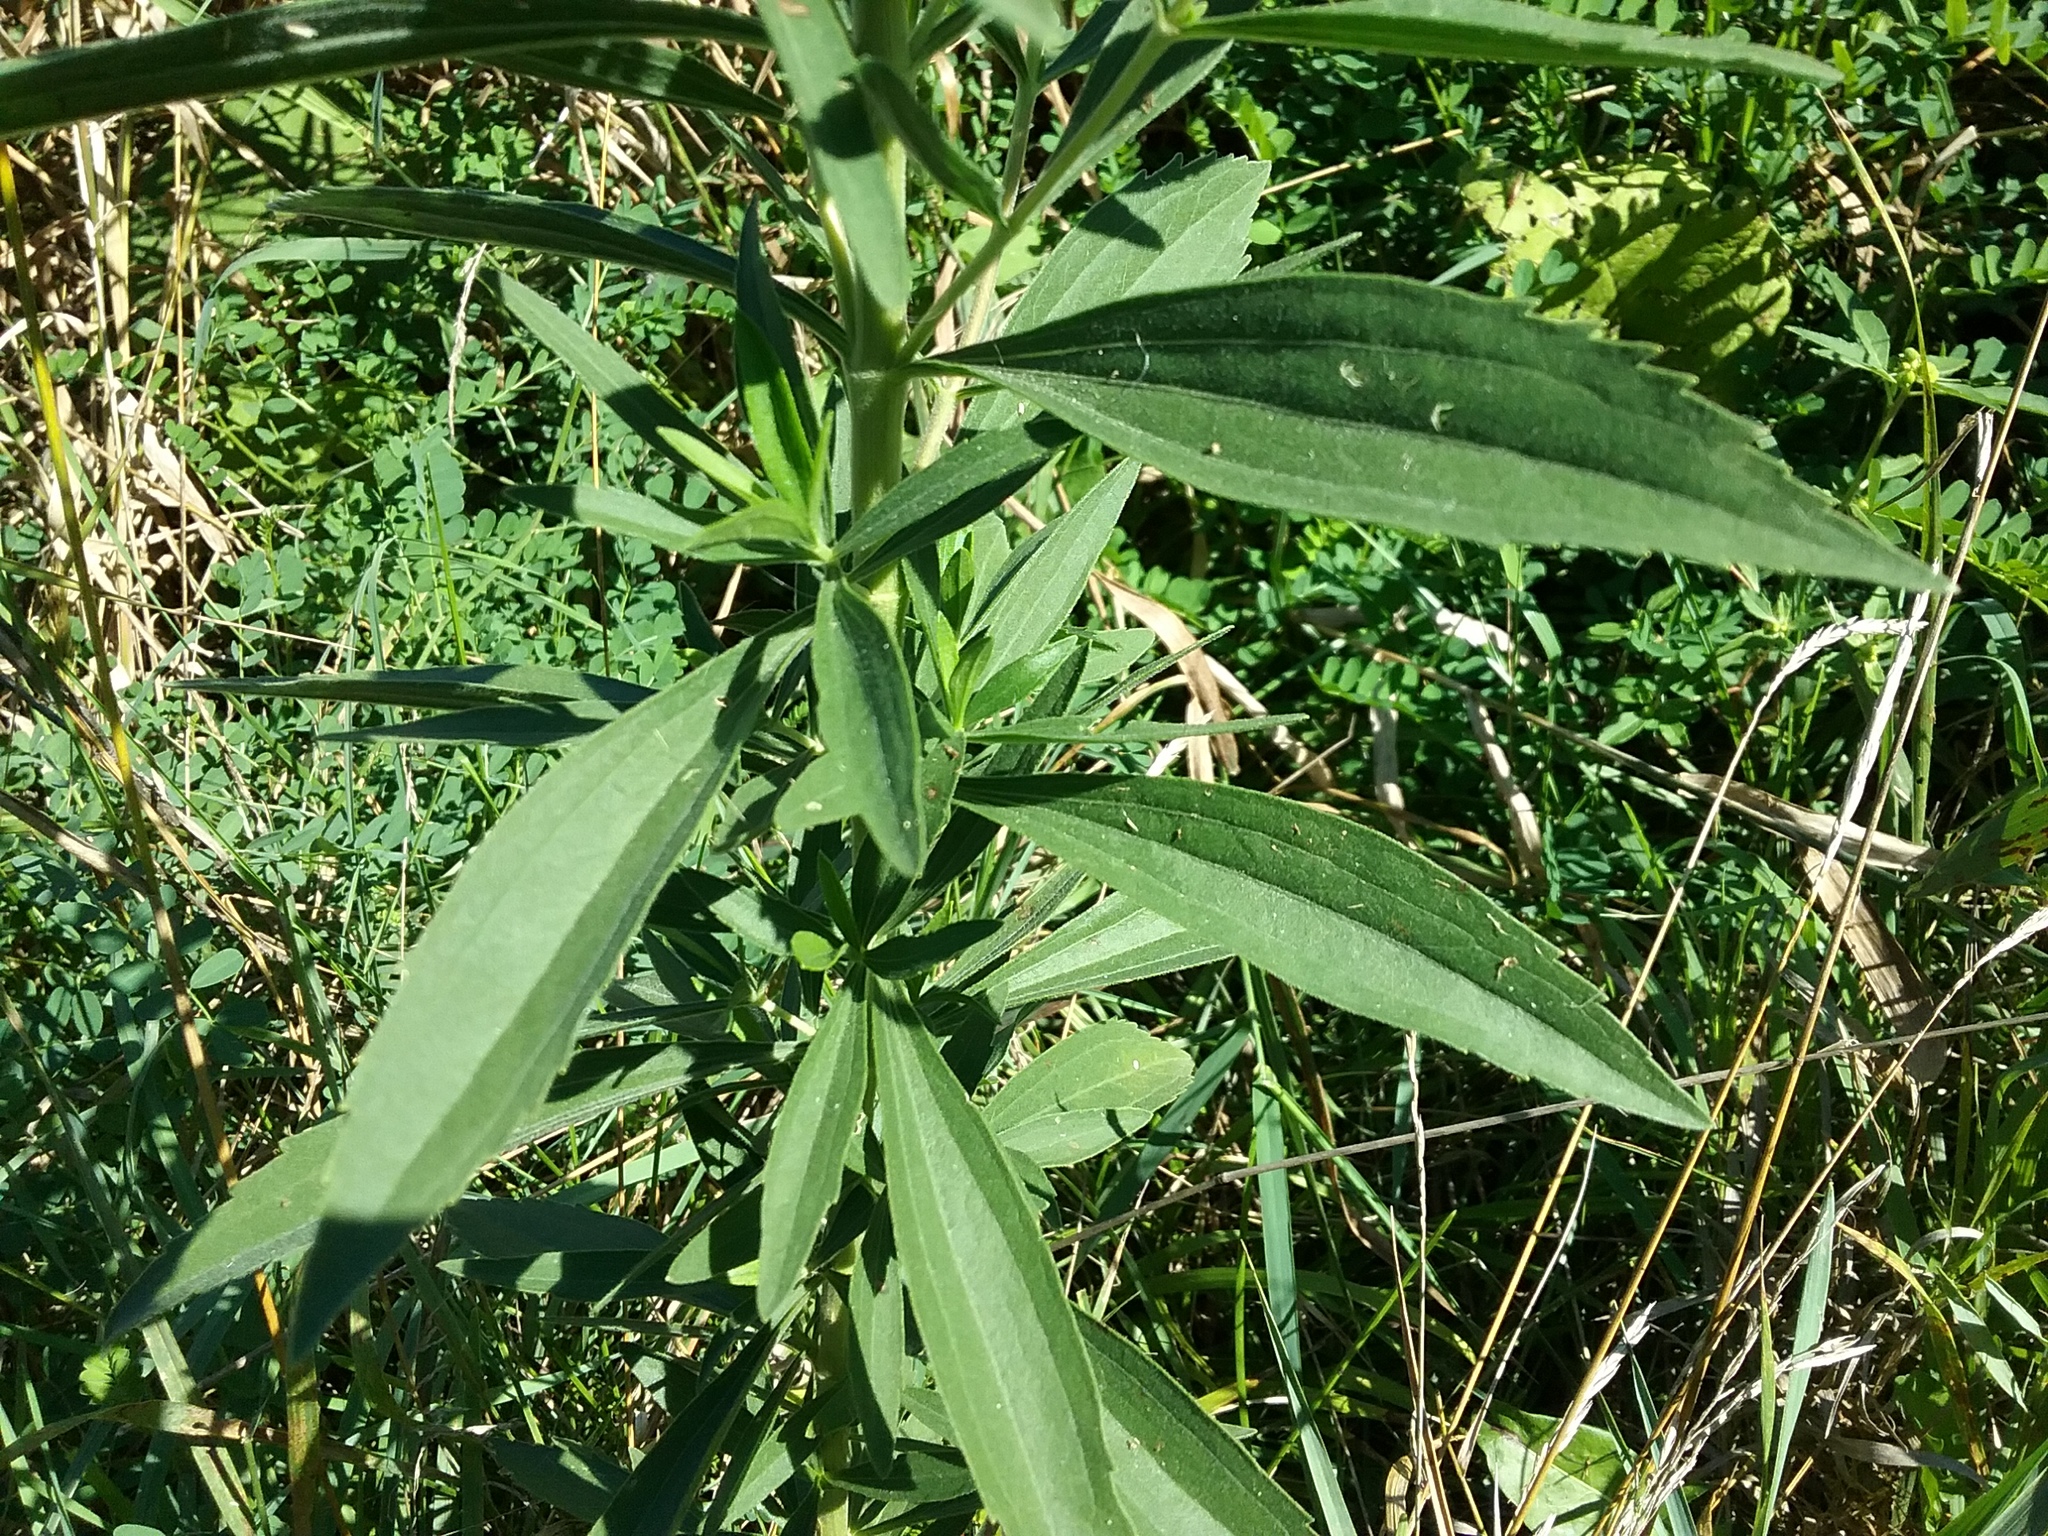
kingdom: Plantae
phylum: Tracheophyta
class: Magnoliopsida
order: Asterales
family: Asteraceae
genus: Eupatorium
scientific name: Eupatorium altissimum
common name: Tall thoroughwort
